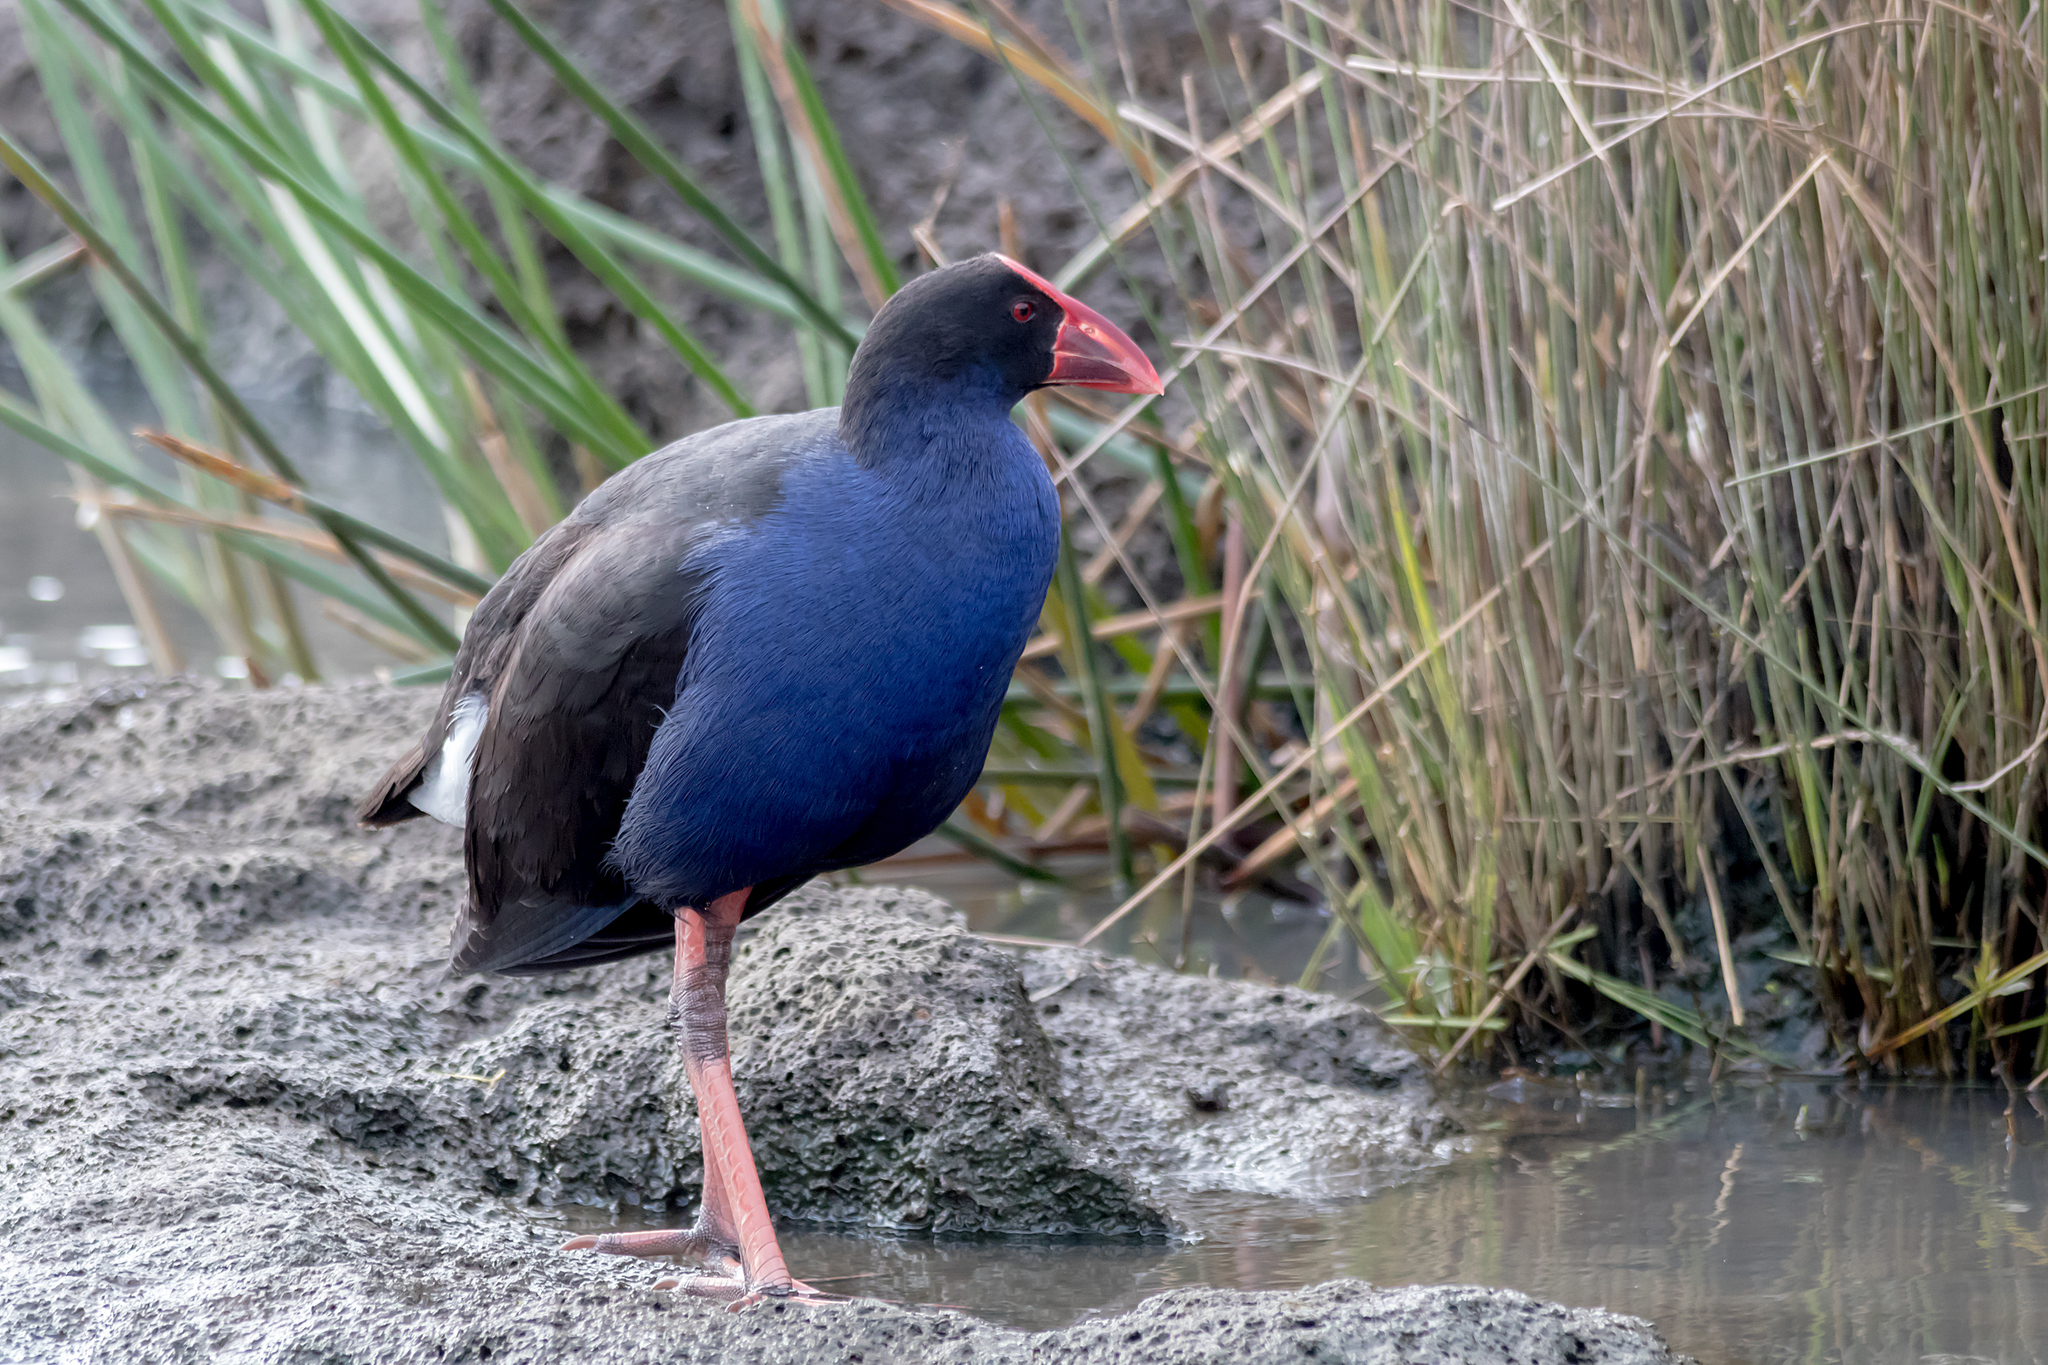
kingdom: Animalia
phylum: Chordata
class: Aves
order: Gruiformes
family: Rallidae
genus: Porphyrio
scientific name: Porphyrio melanotus
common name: Australasian swamphen
